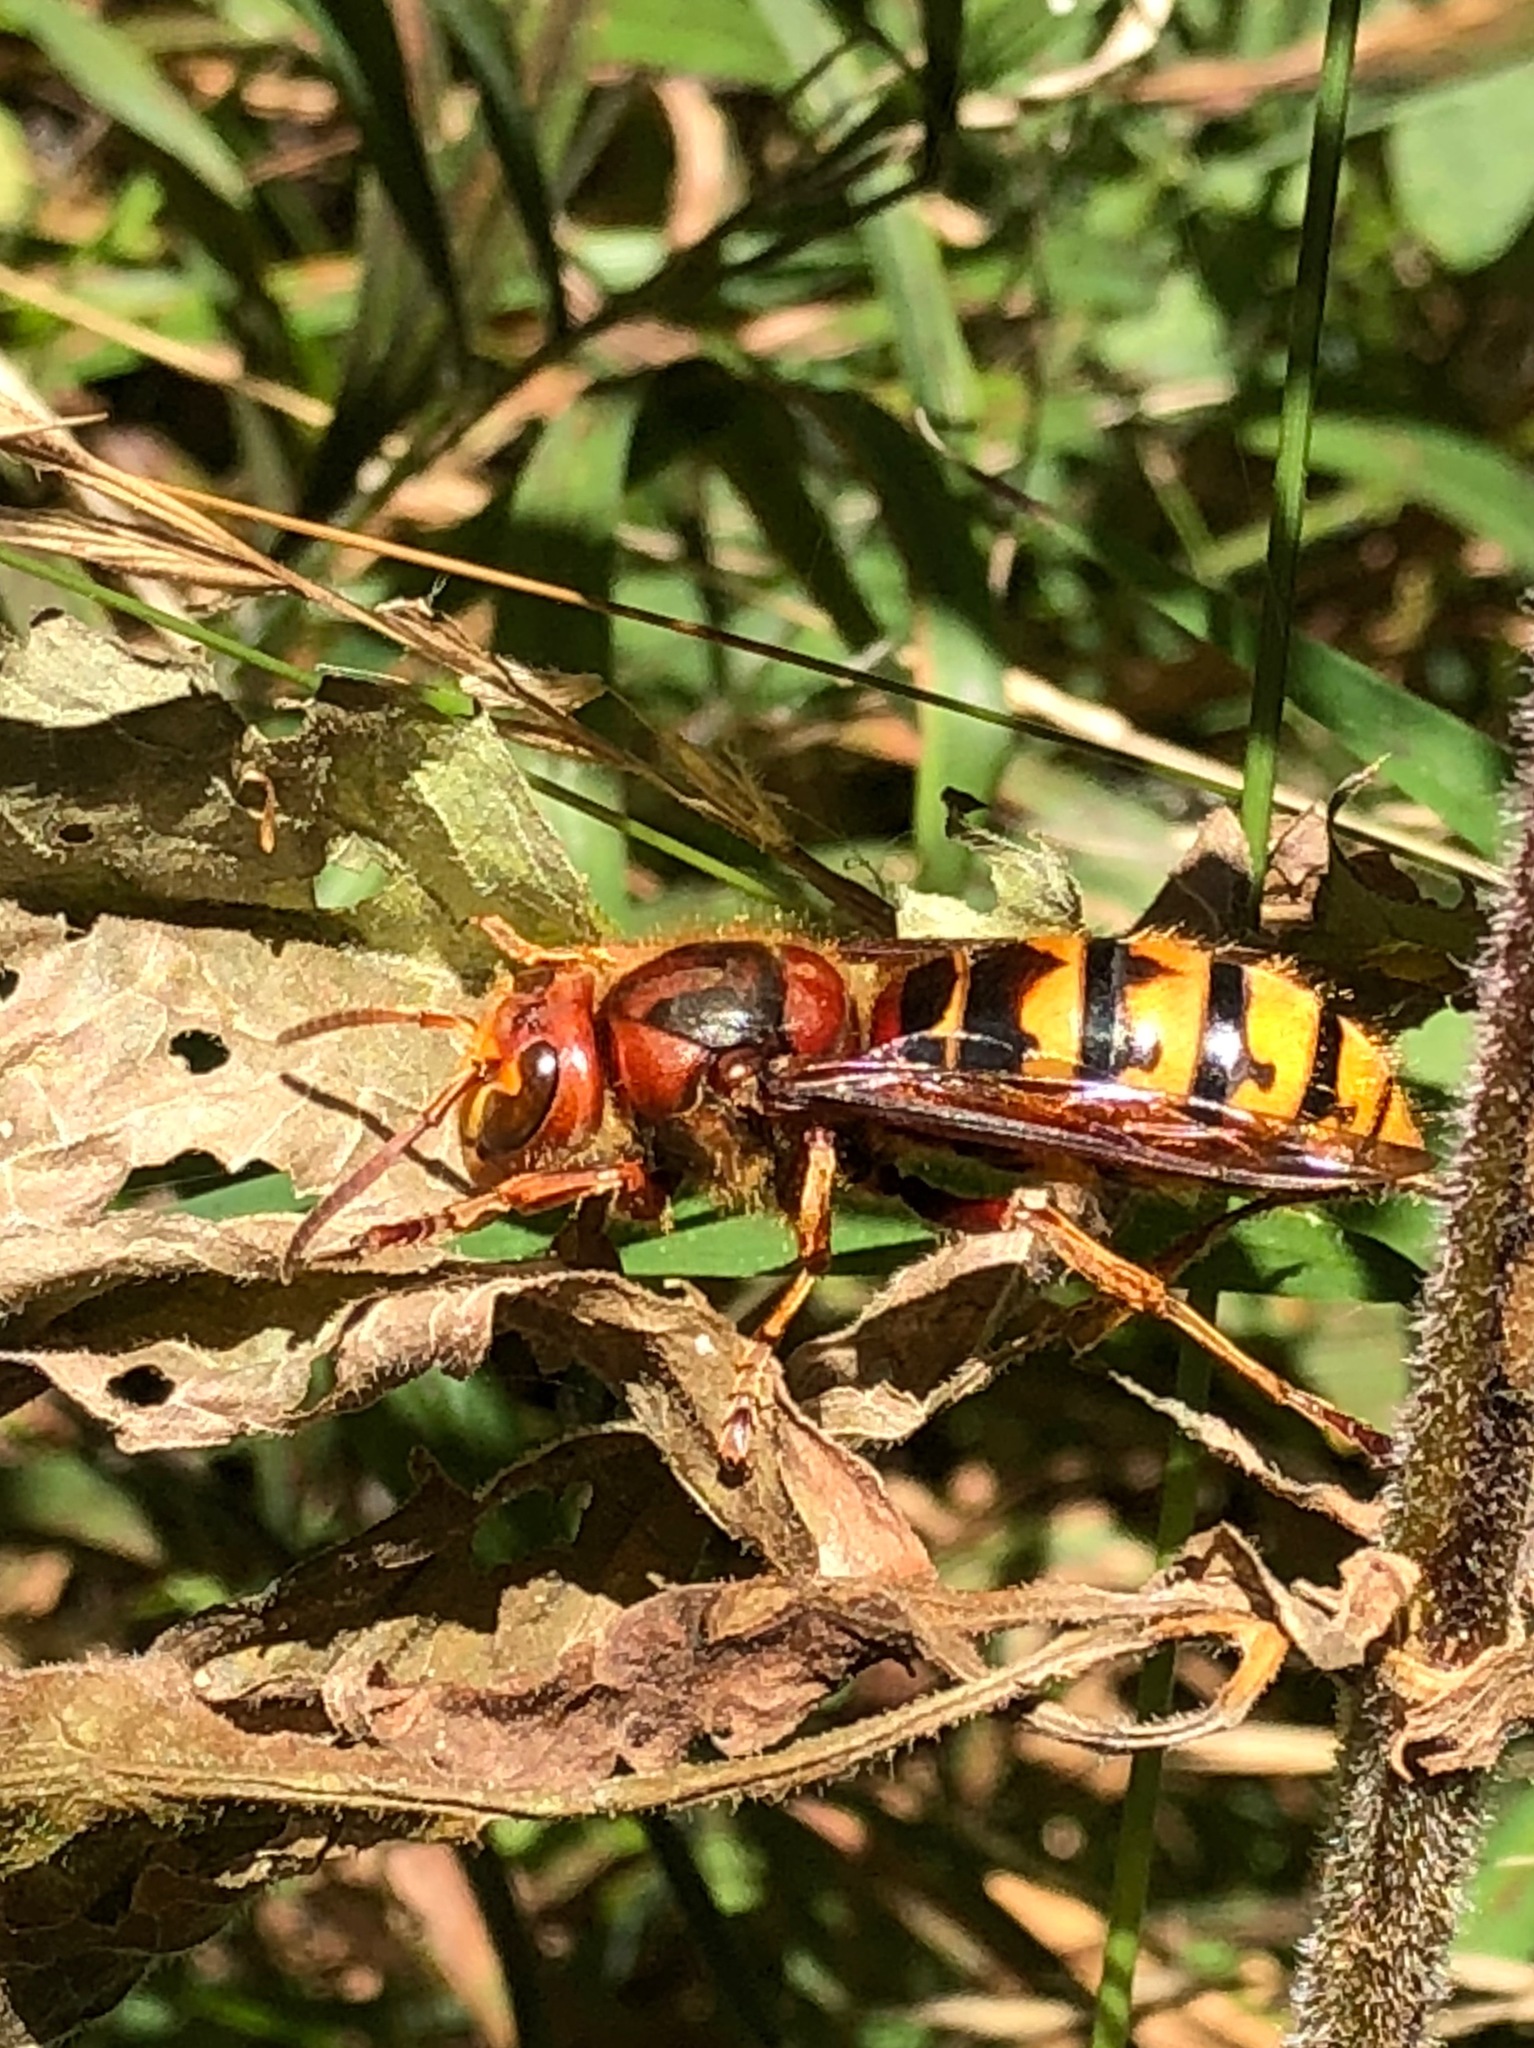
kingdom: Animalia
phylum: Arthropoda
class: Insecta
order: Hymenoptera
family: Vespidae
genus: Vespa
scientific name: Vespa crabro
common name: Hornet
